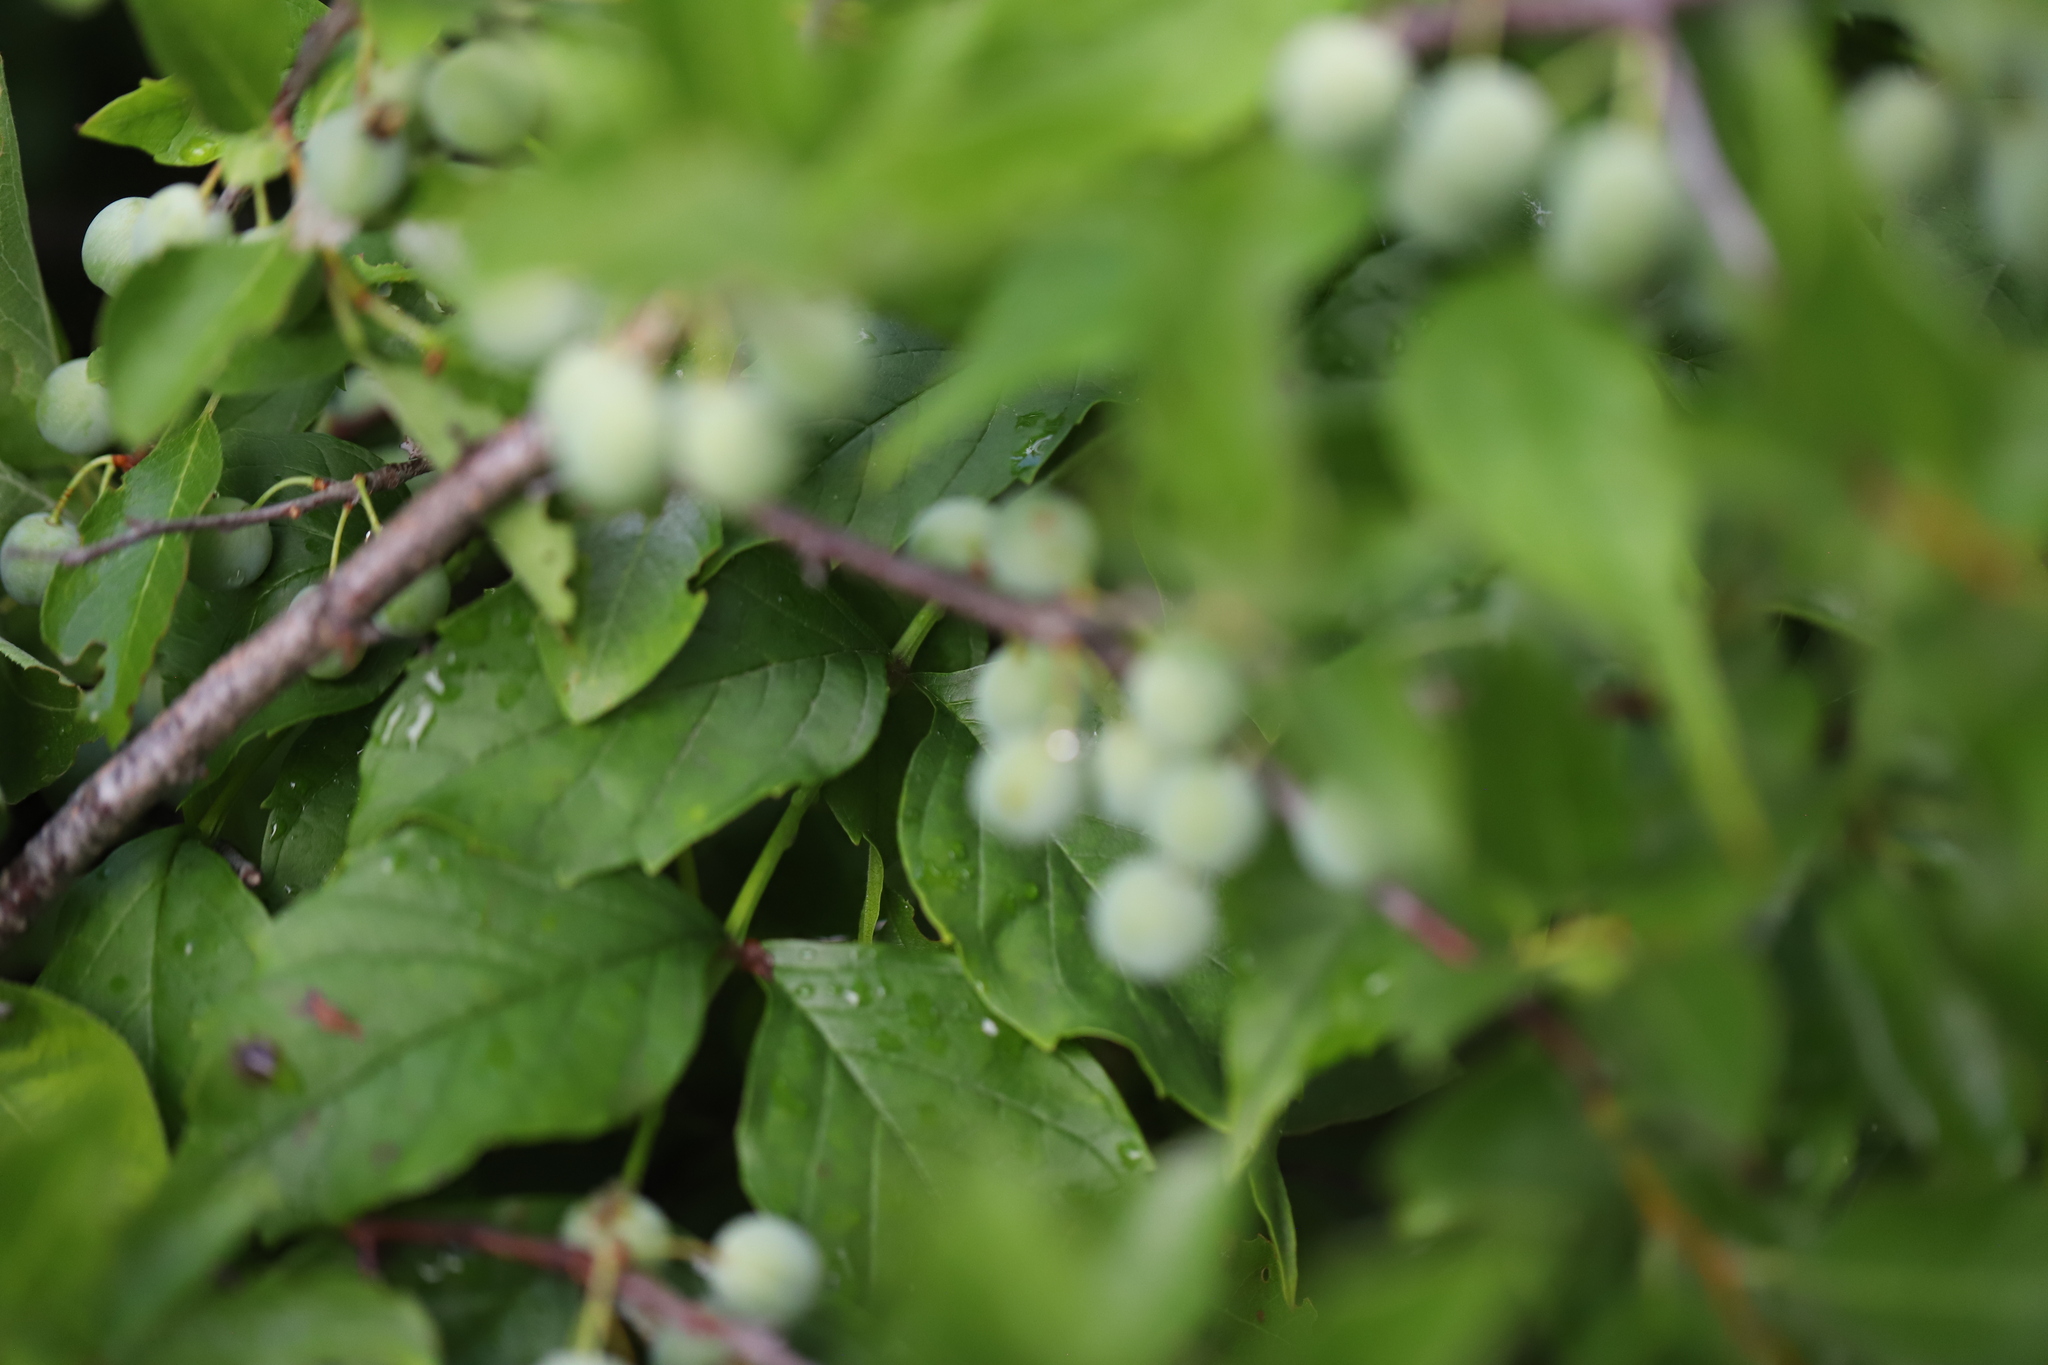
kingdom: Plantae
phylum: Tracheophyta
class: Magnoliopsida
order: Rosales
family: Rosaceae
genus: Prunus
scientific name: Prunus maritima
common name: Beach plum
